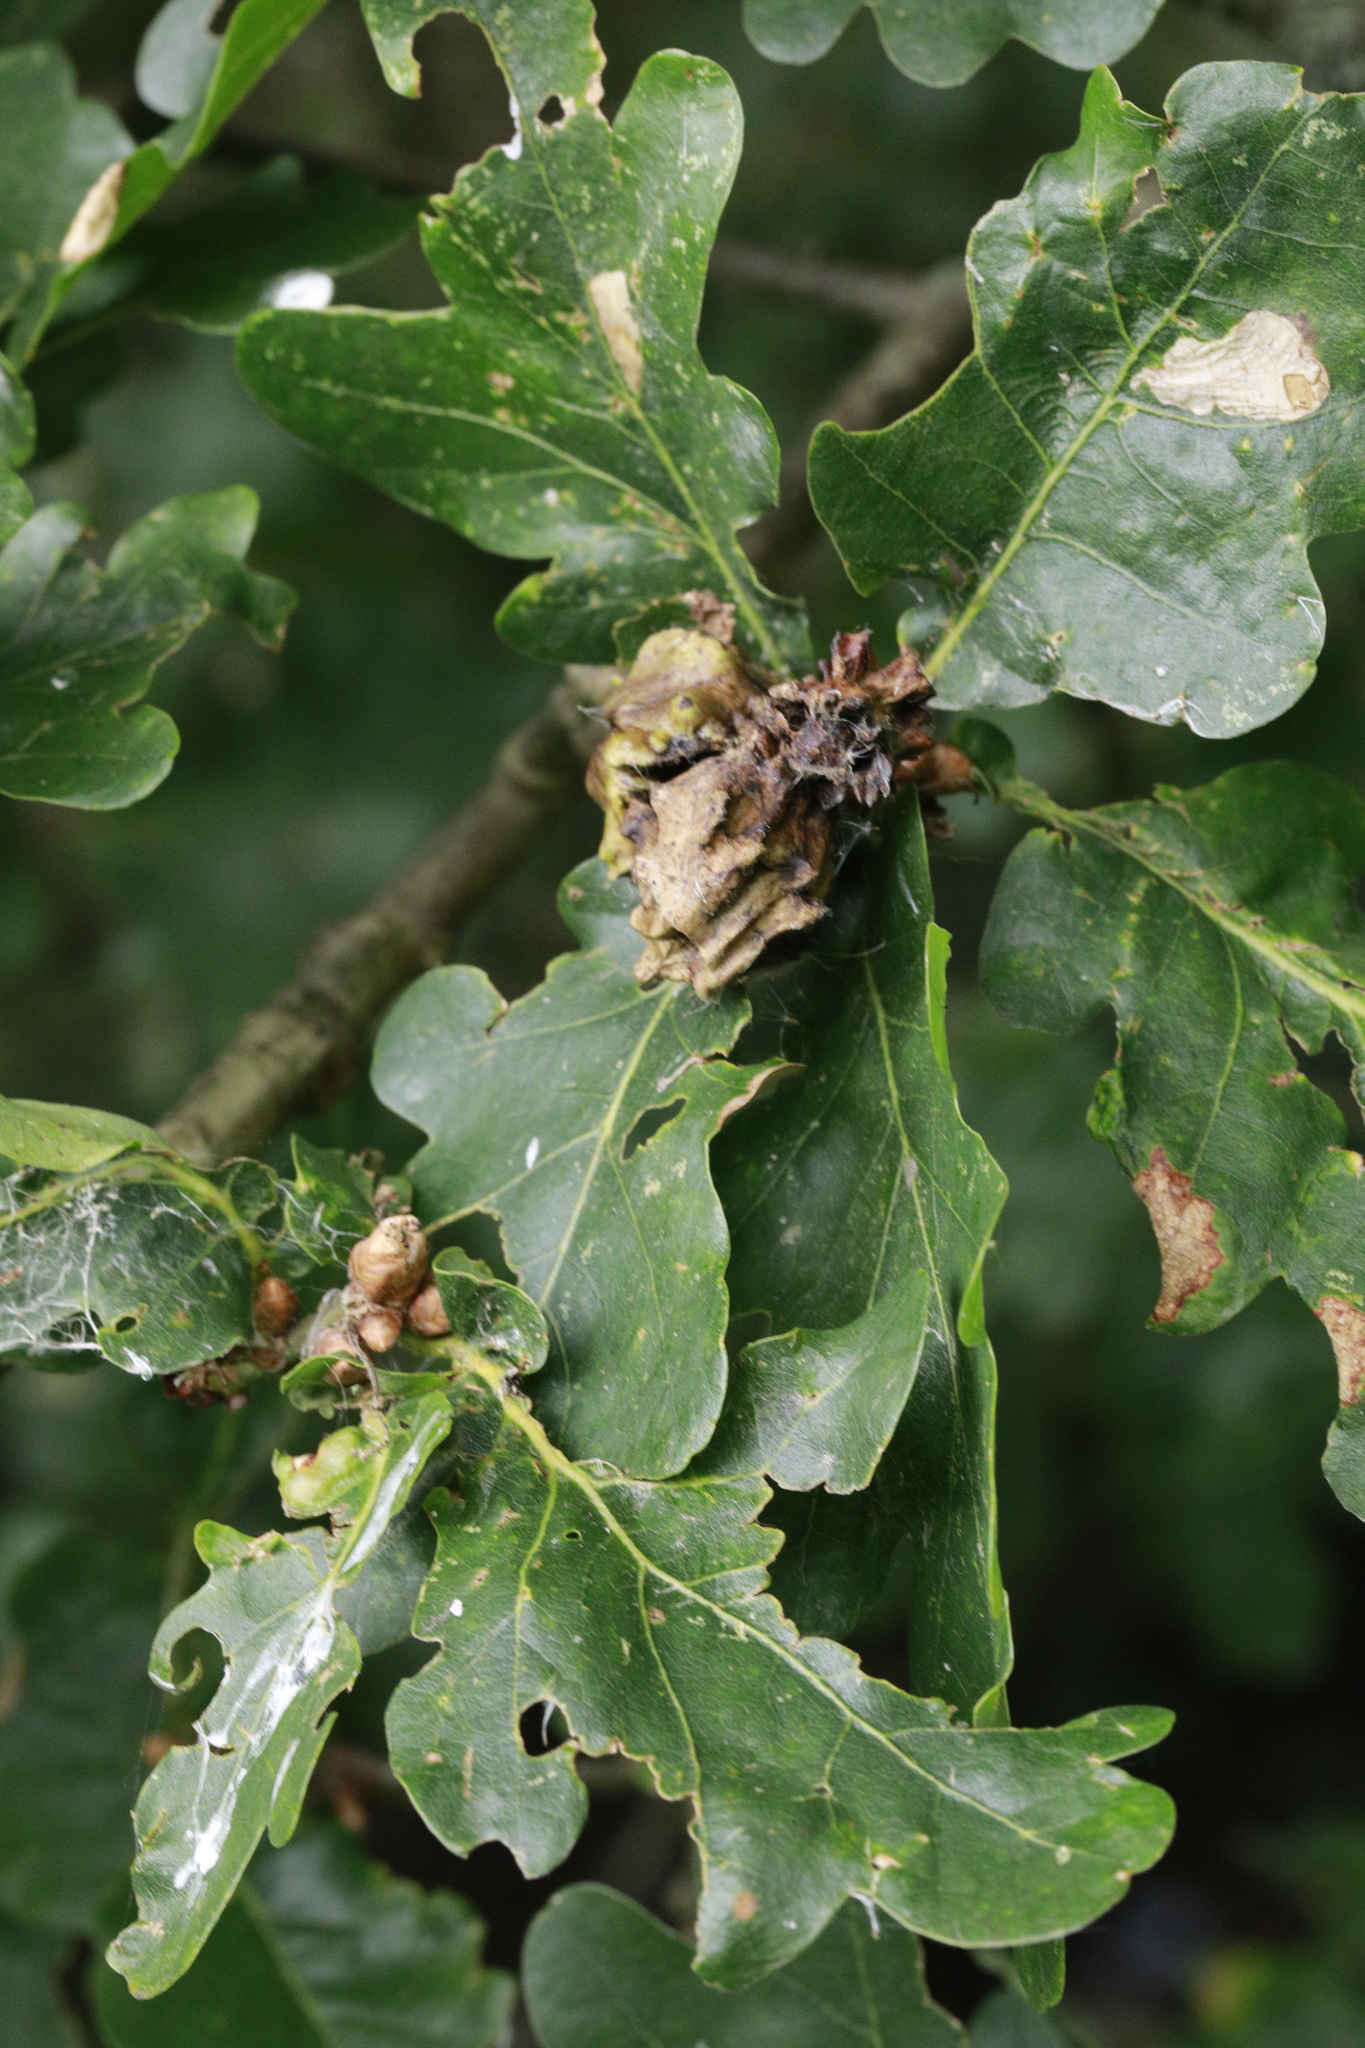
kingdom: Animalia
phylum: Arthropoda
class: Insecta
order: Hymenoptera
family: Cynipidae
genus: Andricus
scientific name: Andricus quercuscalicis
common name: Knopper gall
